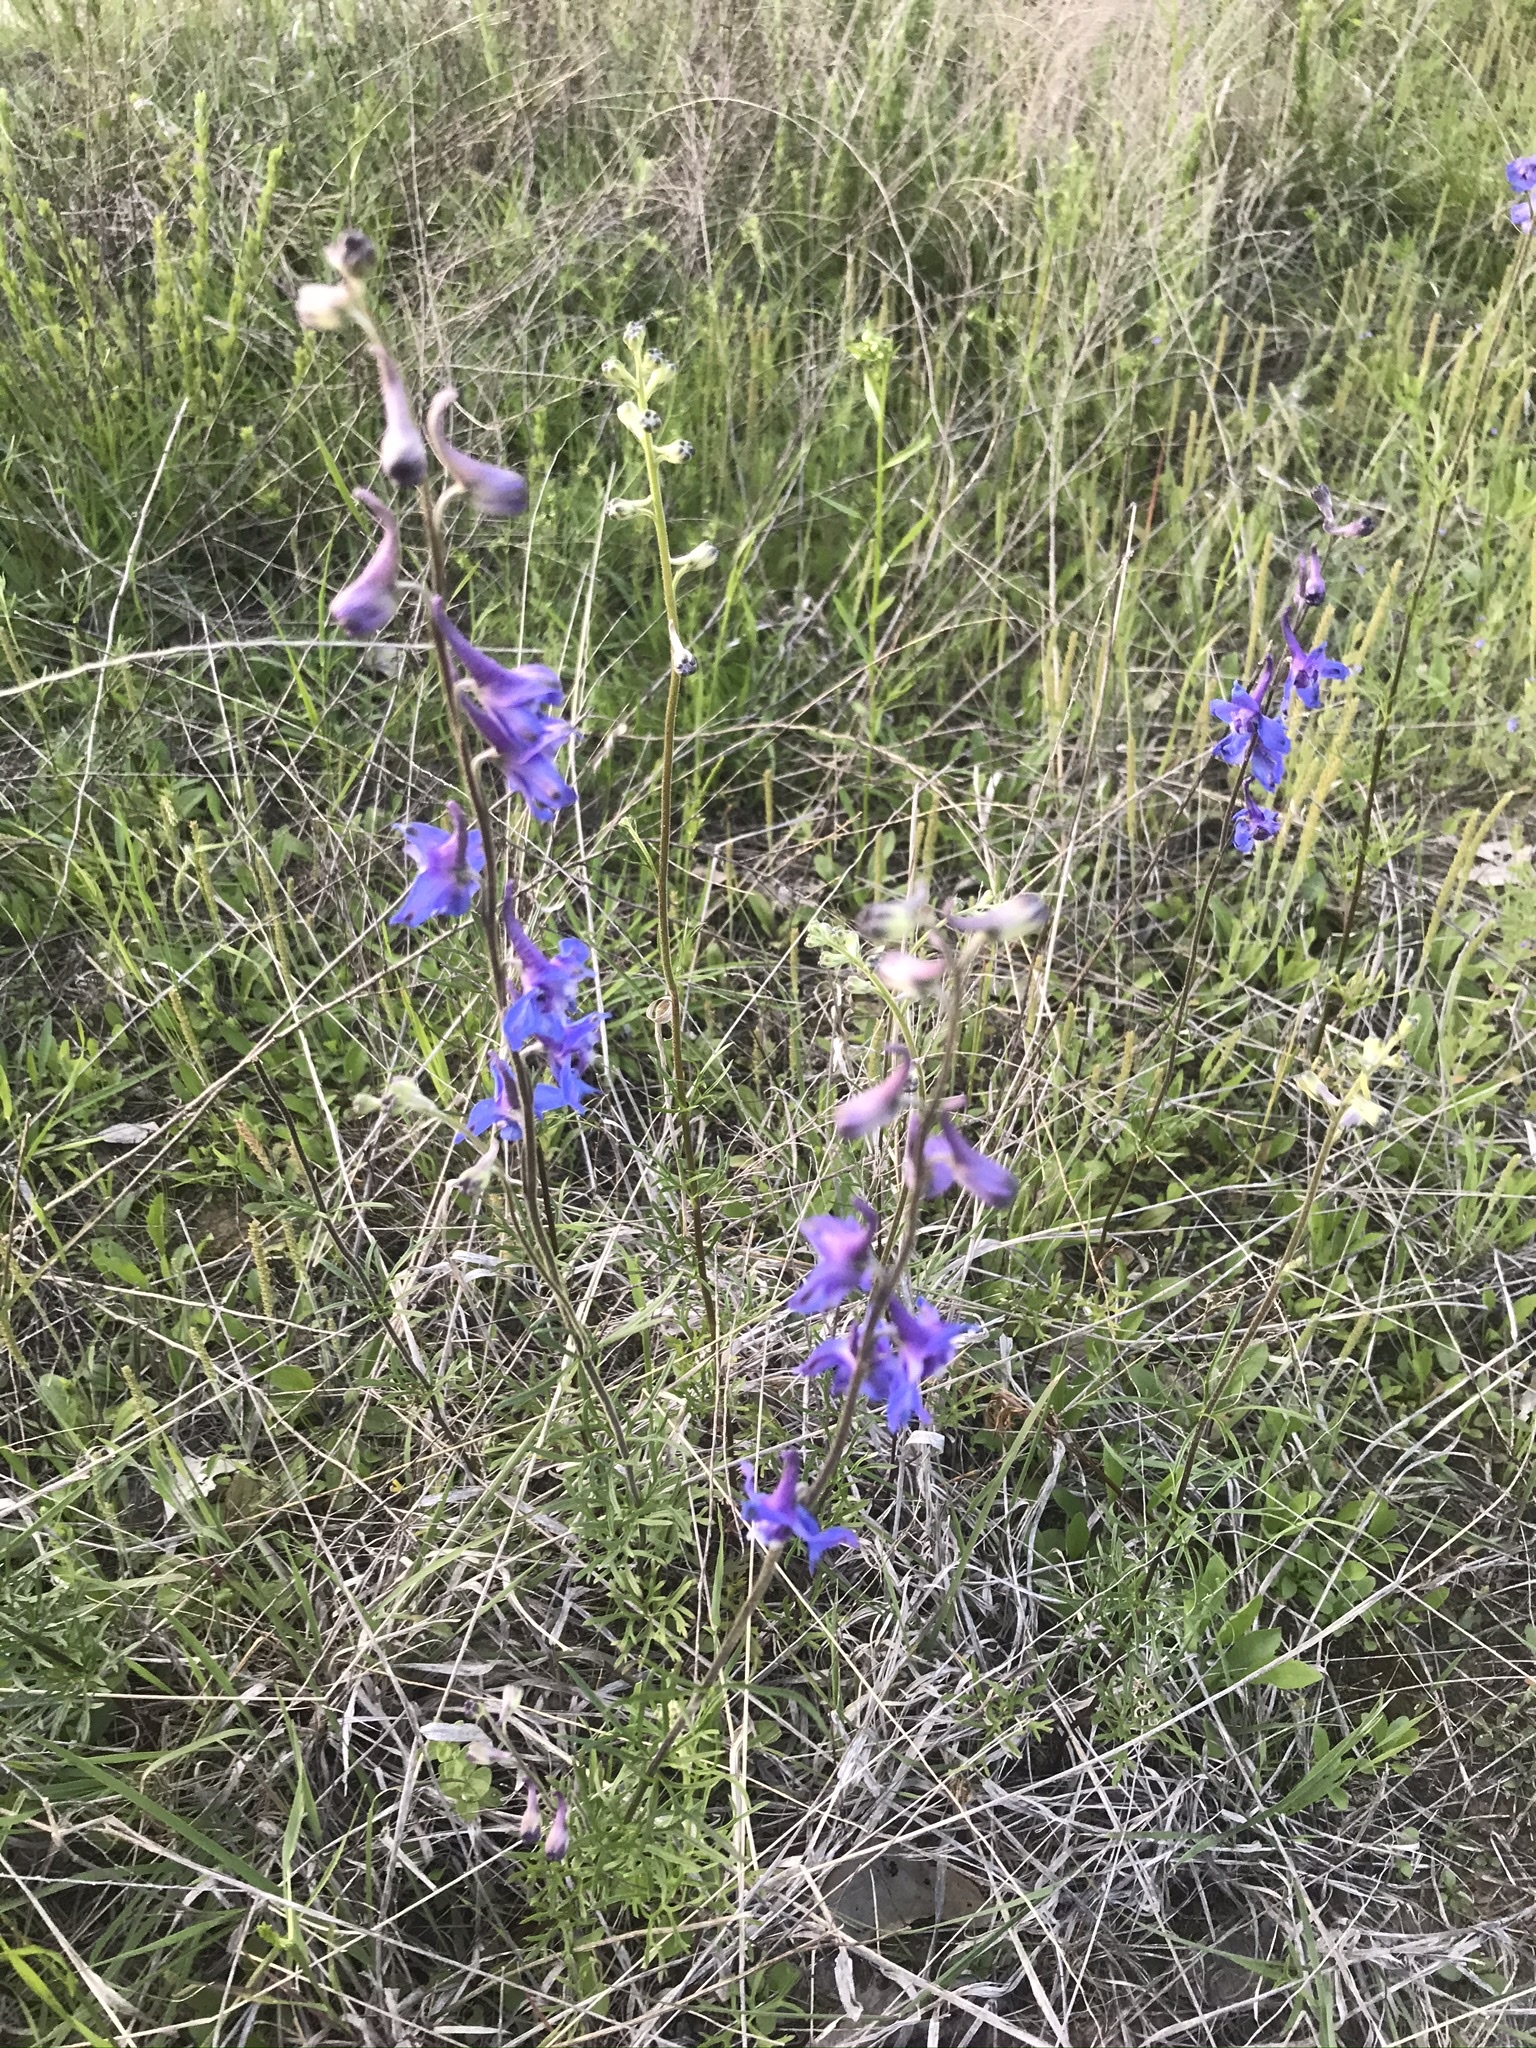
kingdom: Plantae
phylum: Tracheophyta
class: Magnoliopsida
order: Ranunculales
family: Ranunculaceae
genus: Delphinium
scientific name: Delphinium carolinianum
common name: Carolina larkspur
